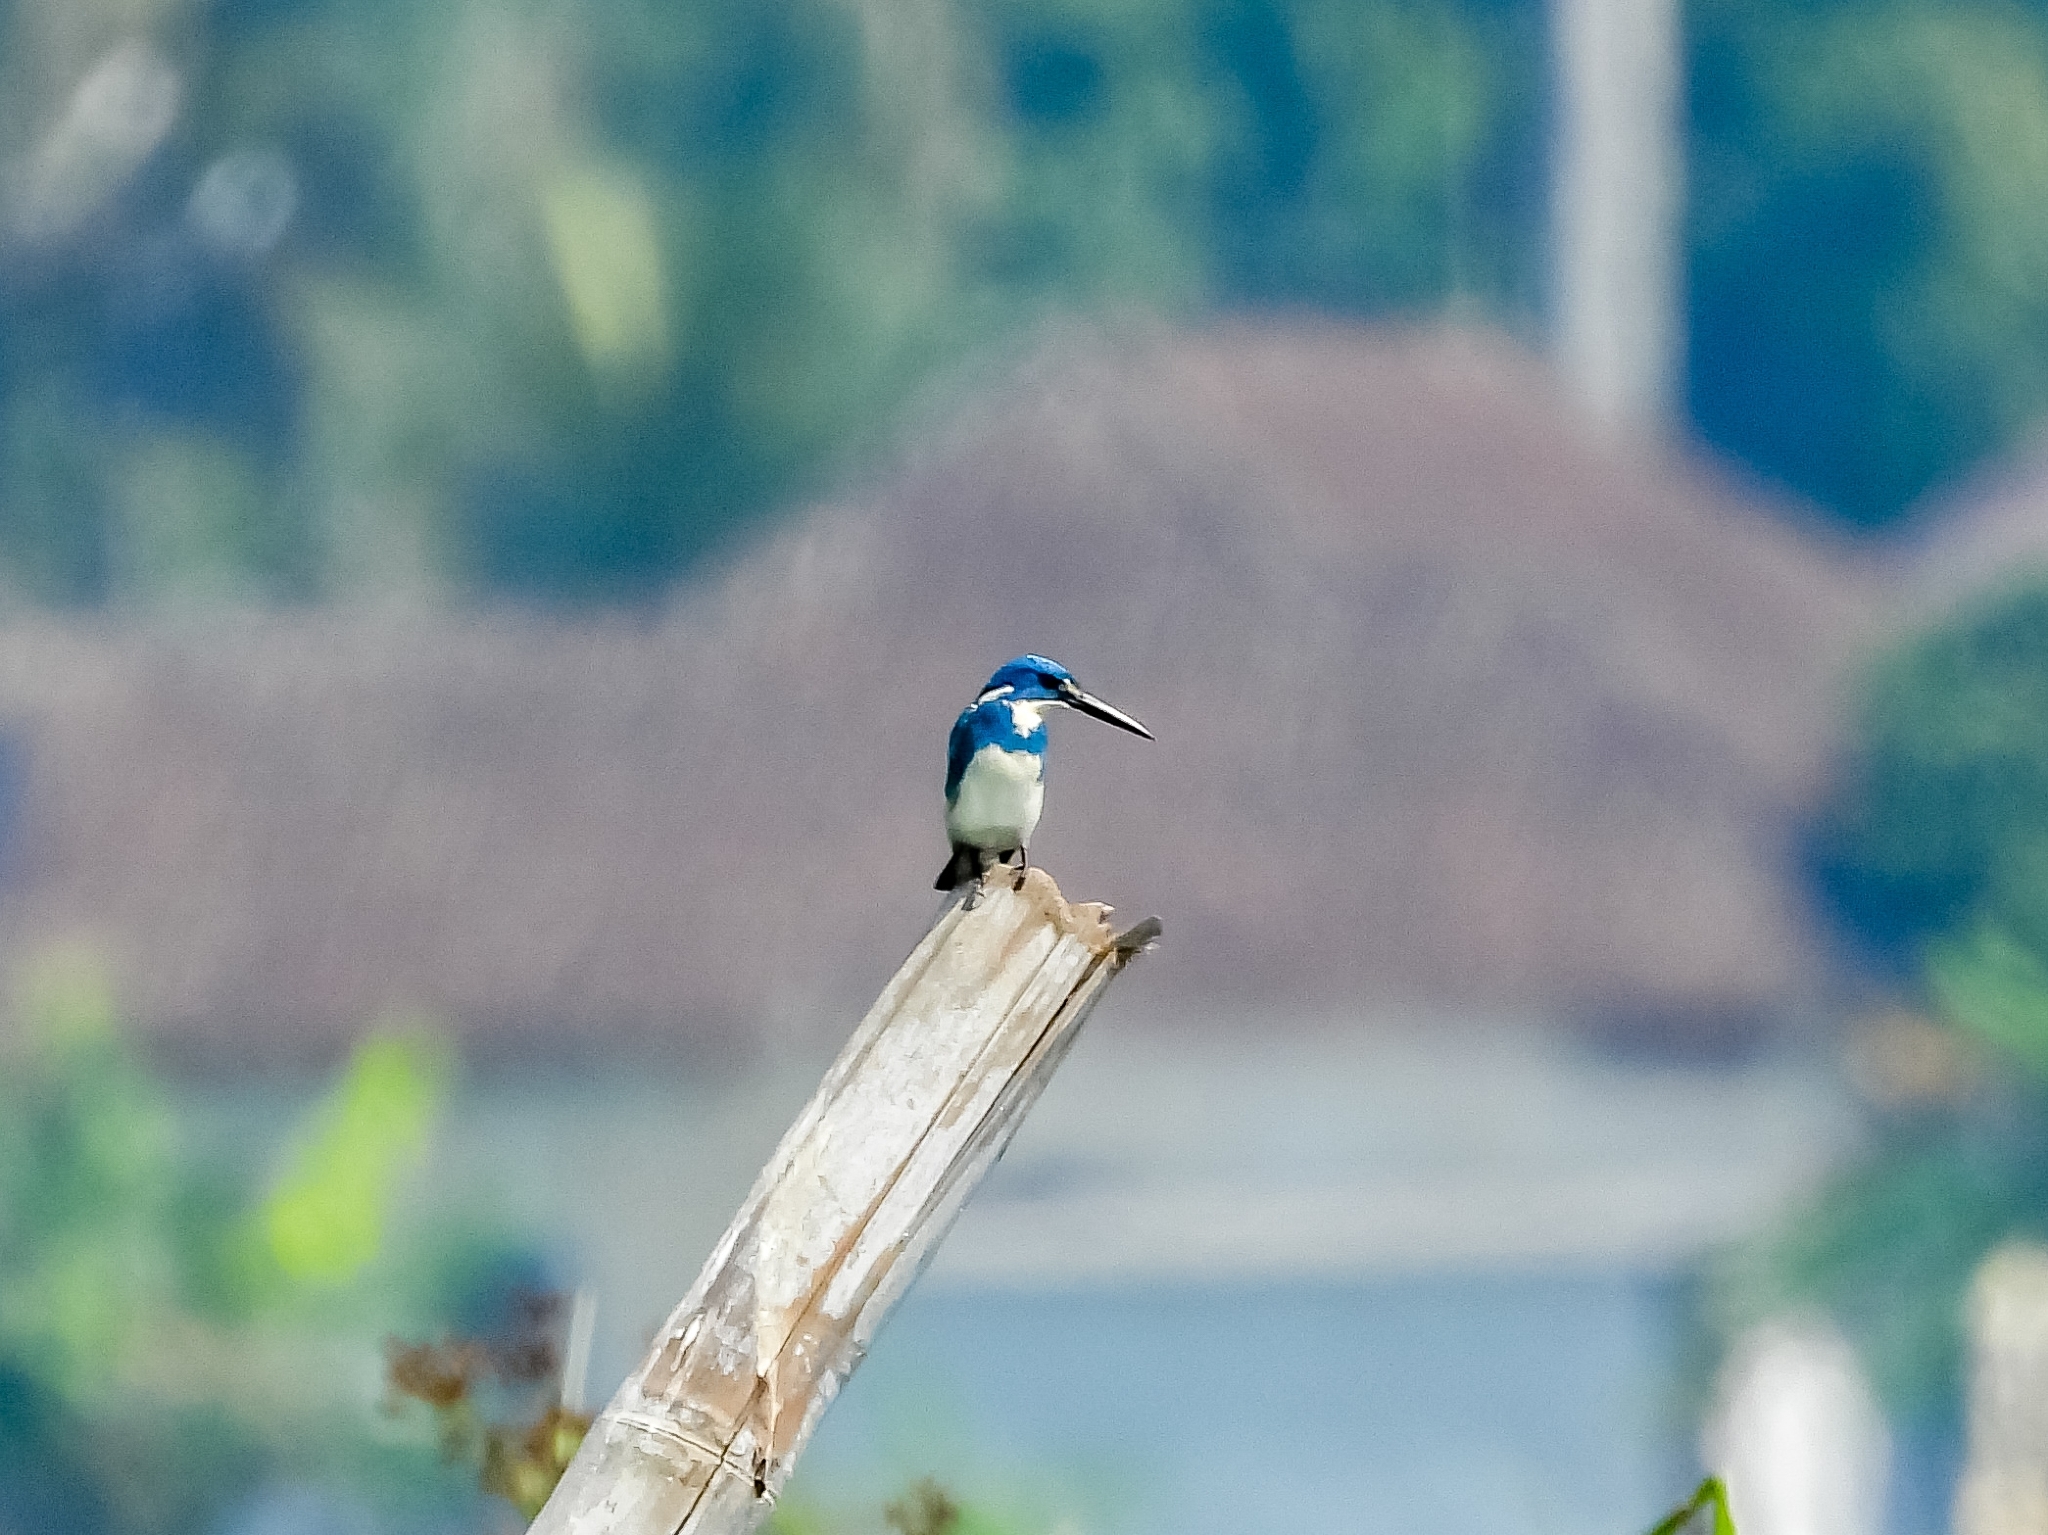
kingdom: Animalia
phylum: Chordata
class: Aves
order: Coraciiformes
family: Alcedinidae
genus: Alcedo
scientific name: Alcedo coerulescens
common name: Cerulean kingfisher
